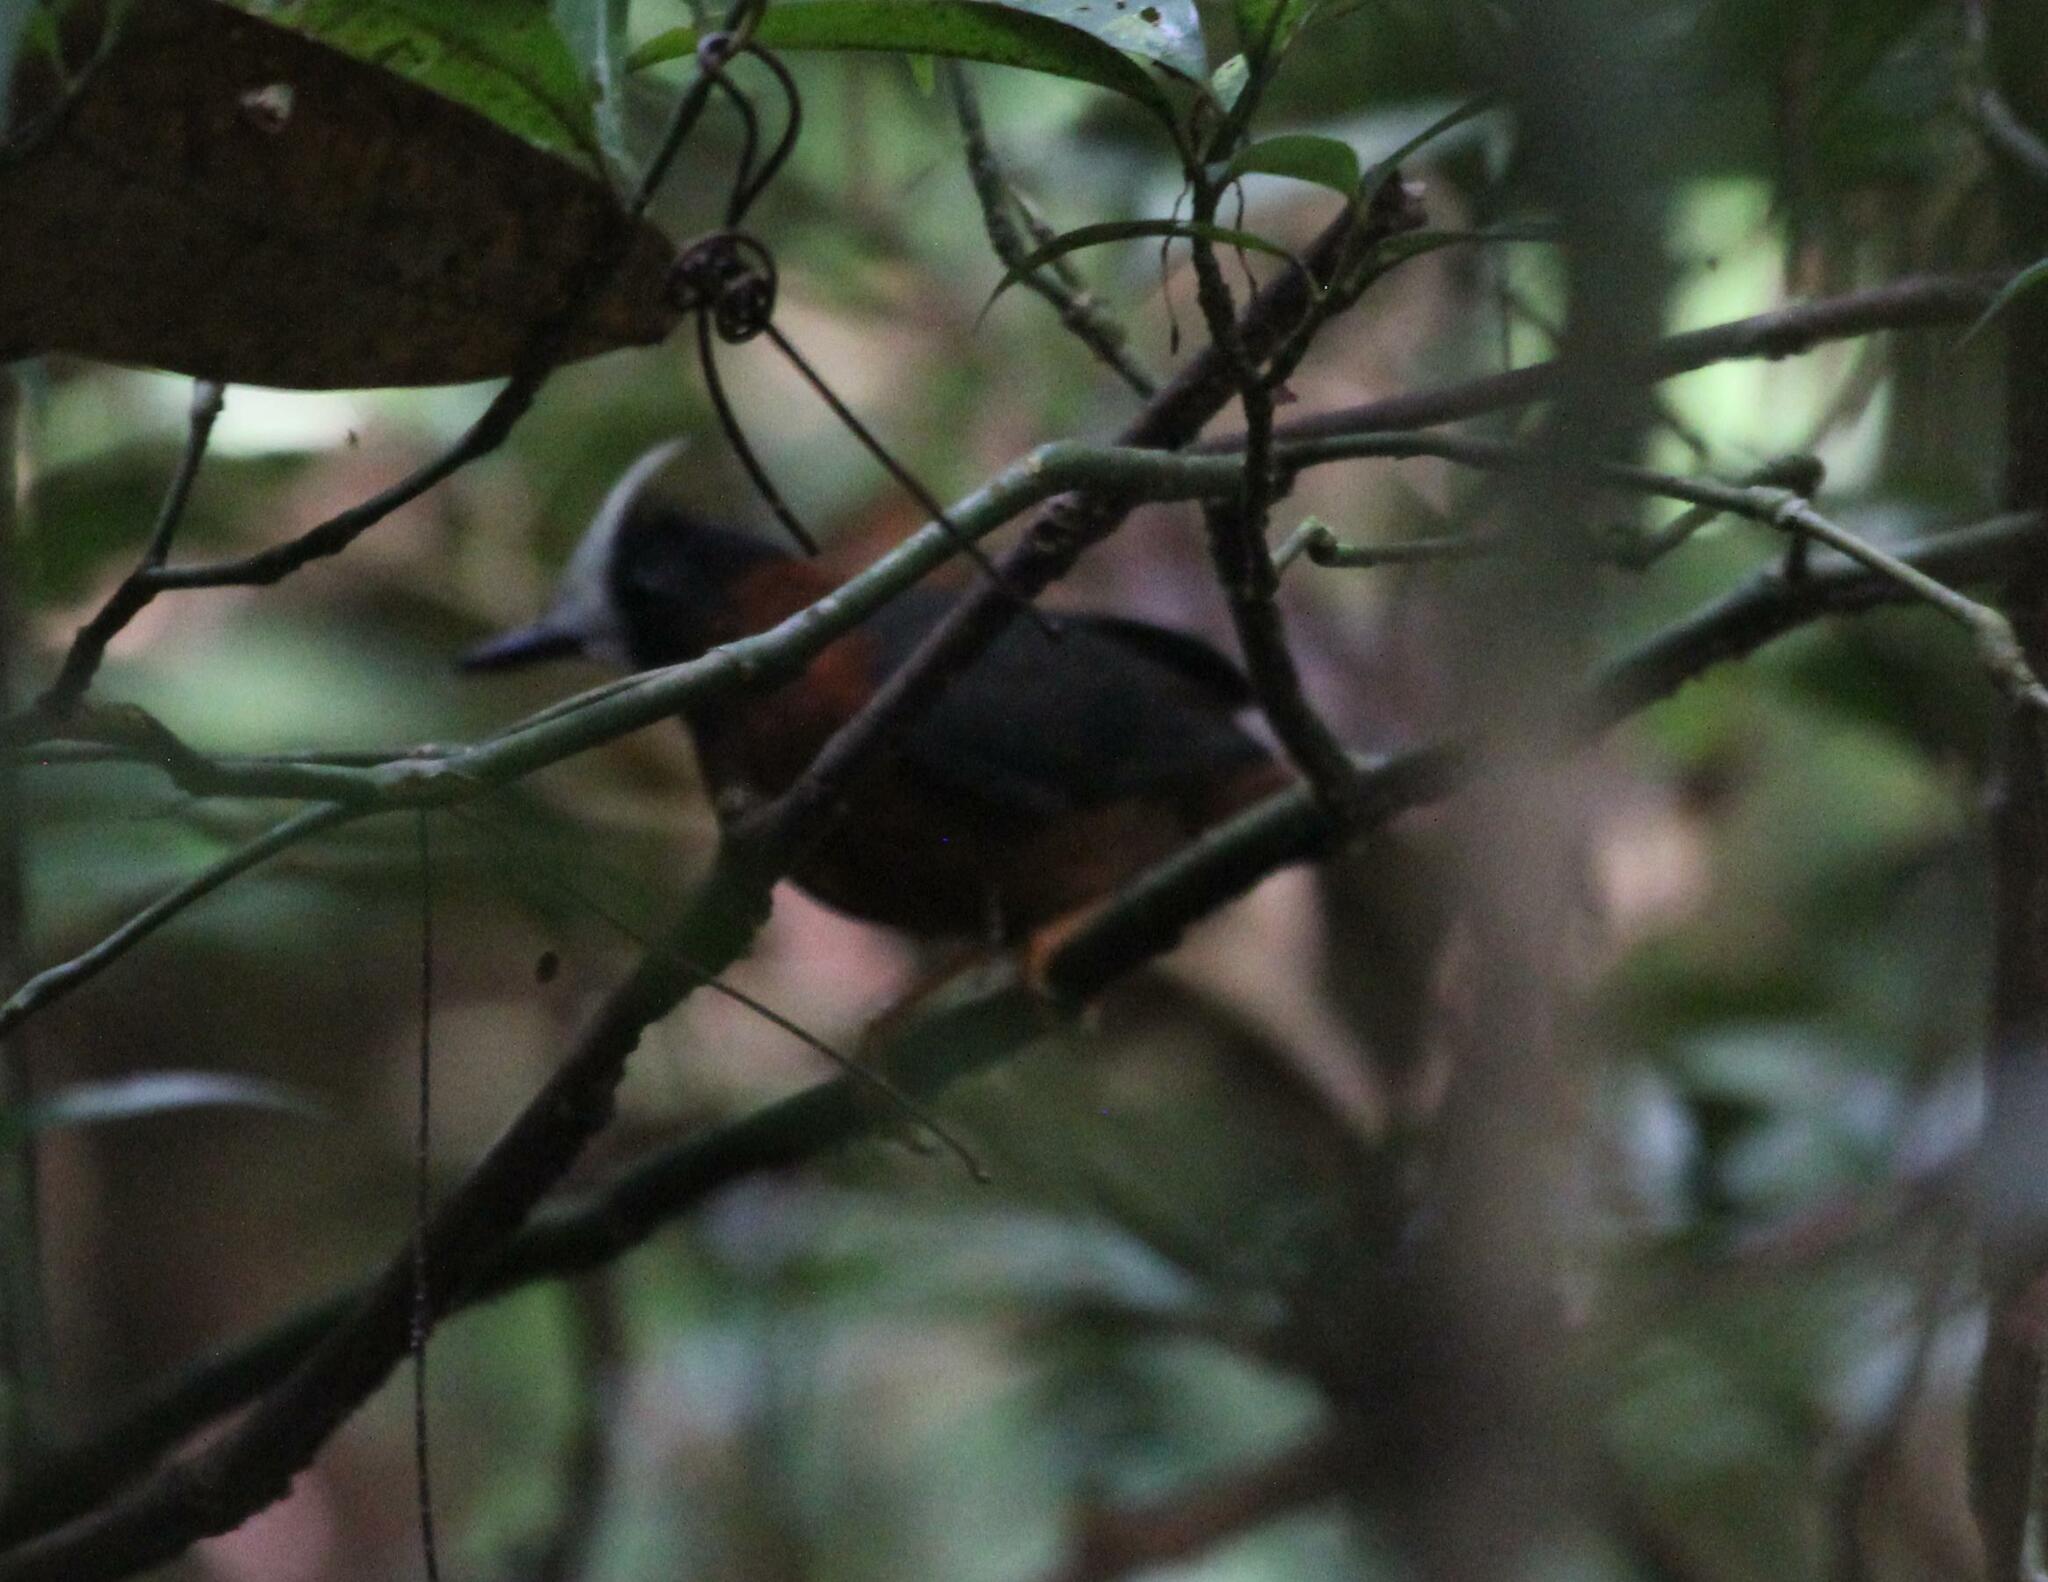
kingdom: Animalia
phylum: Chordata
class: Aves
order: Passeriformes
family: Thamnophilidae
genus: Pithys
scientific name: Pithys albifrons
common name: White-plumed antbird
